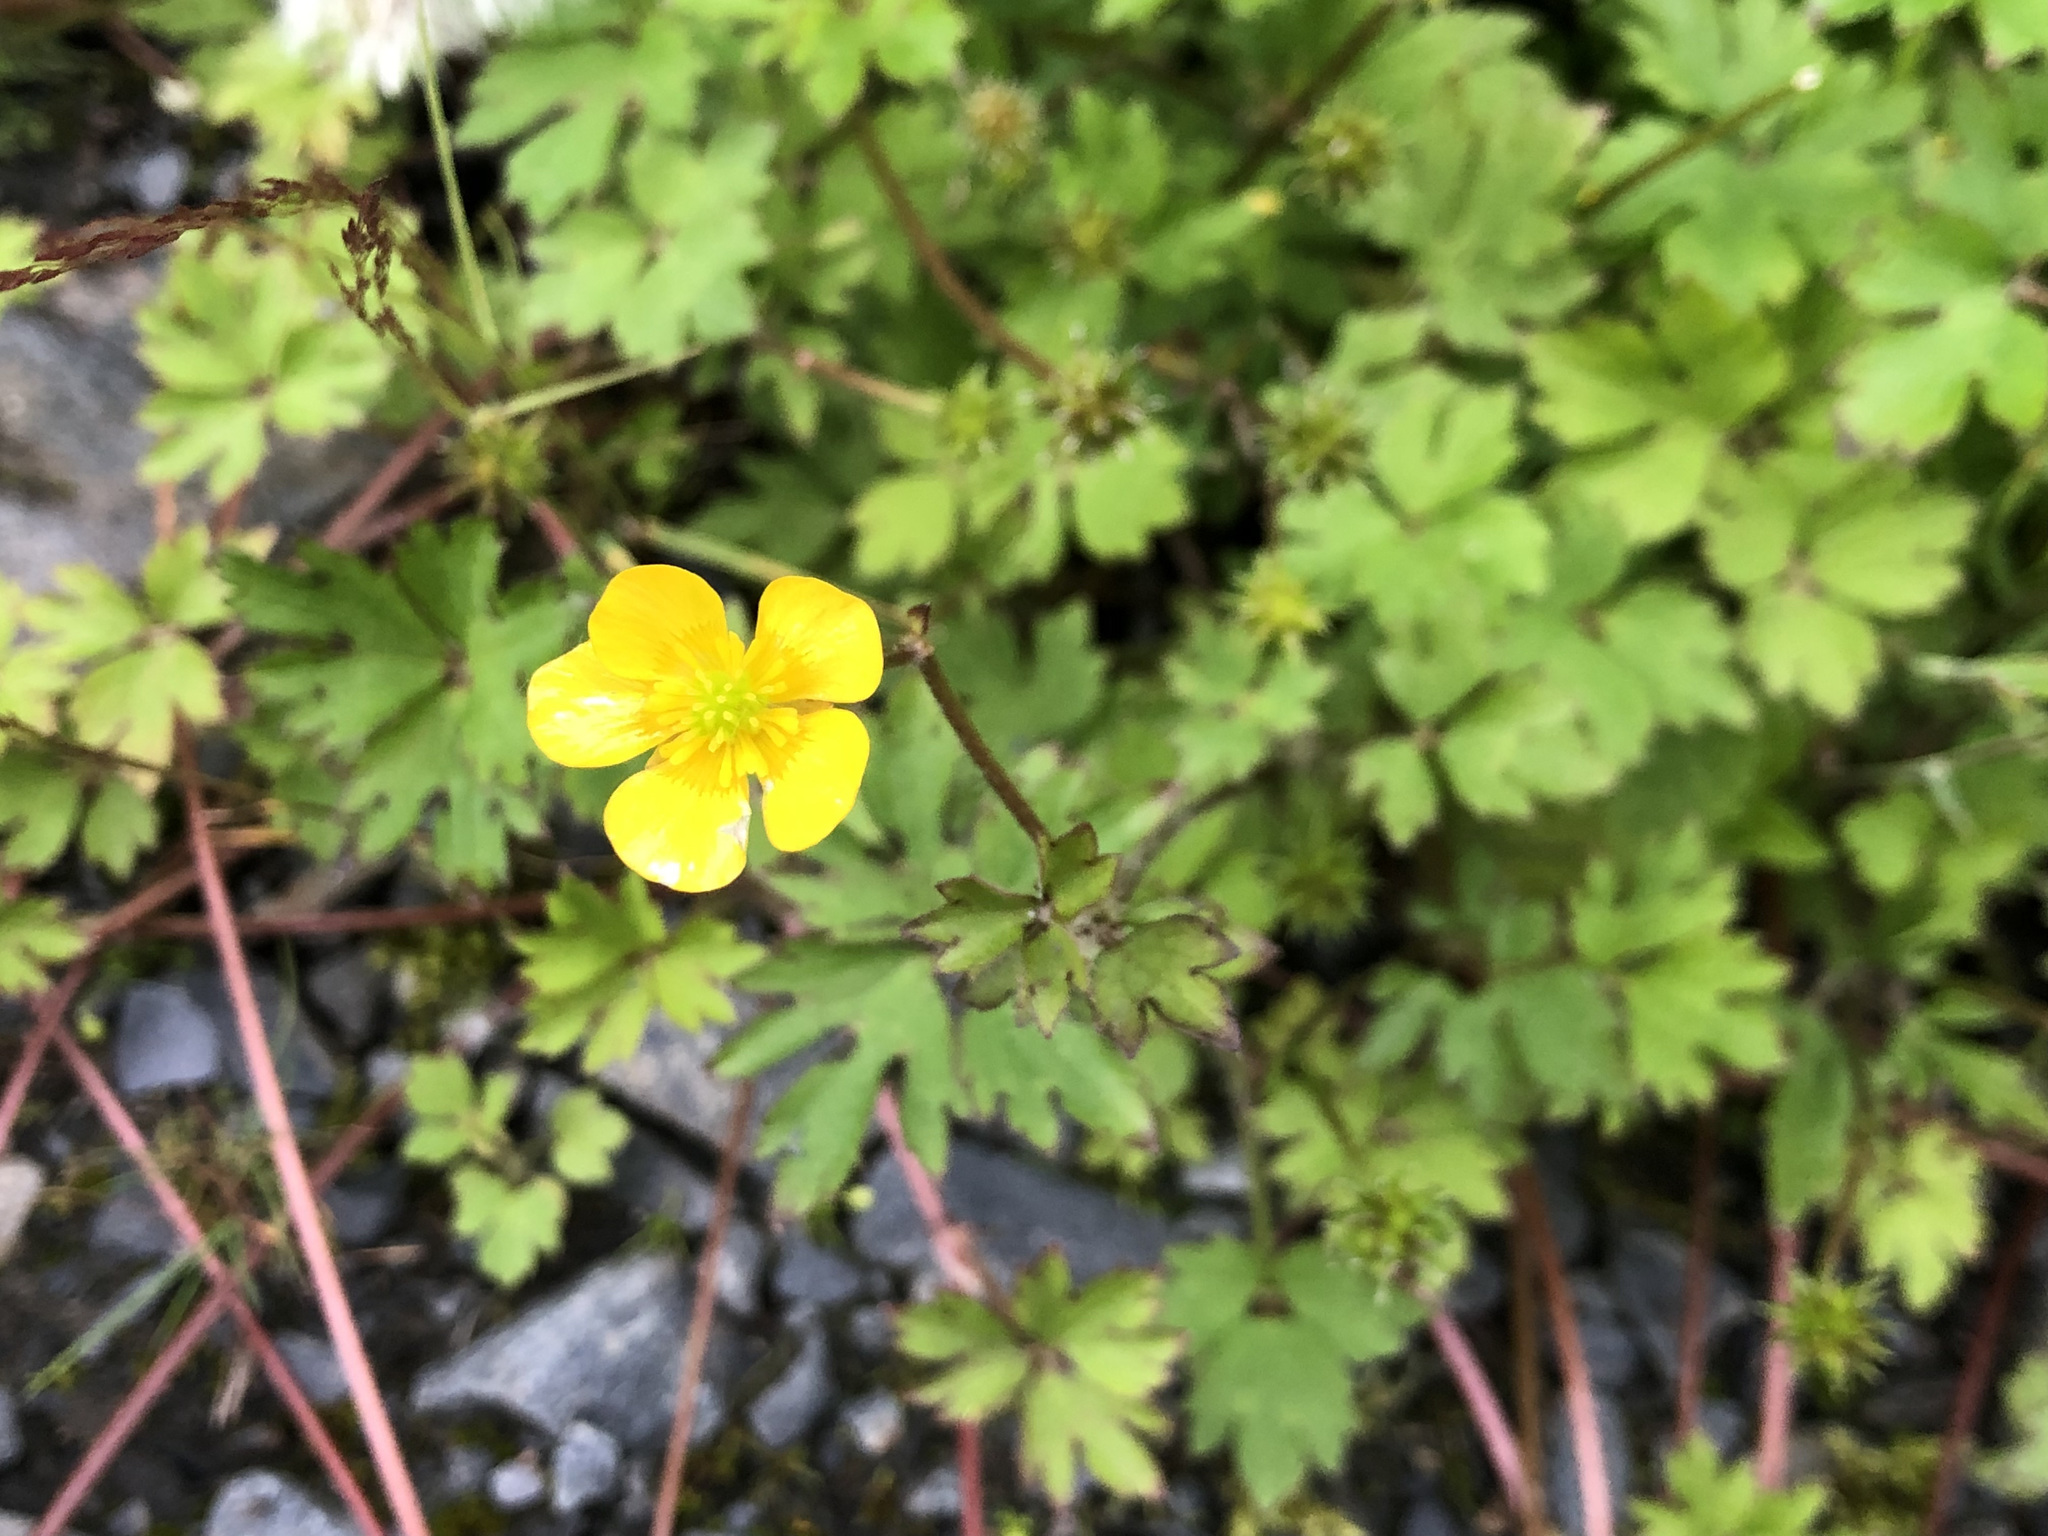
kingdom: Plantae
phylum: Tracheophyta
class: Magnoliopsida
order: Ranunculales
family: Ranunculaceae
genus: Ranunculus
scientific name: Ranunculus repens
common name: Creeping buttercup
